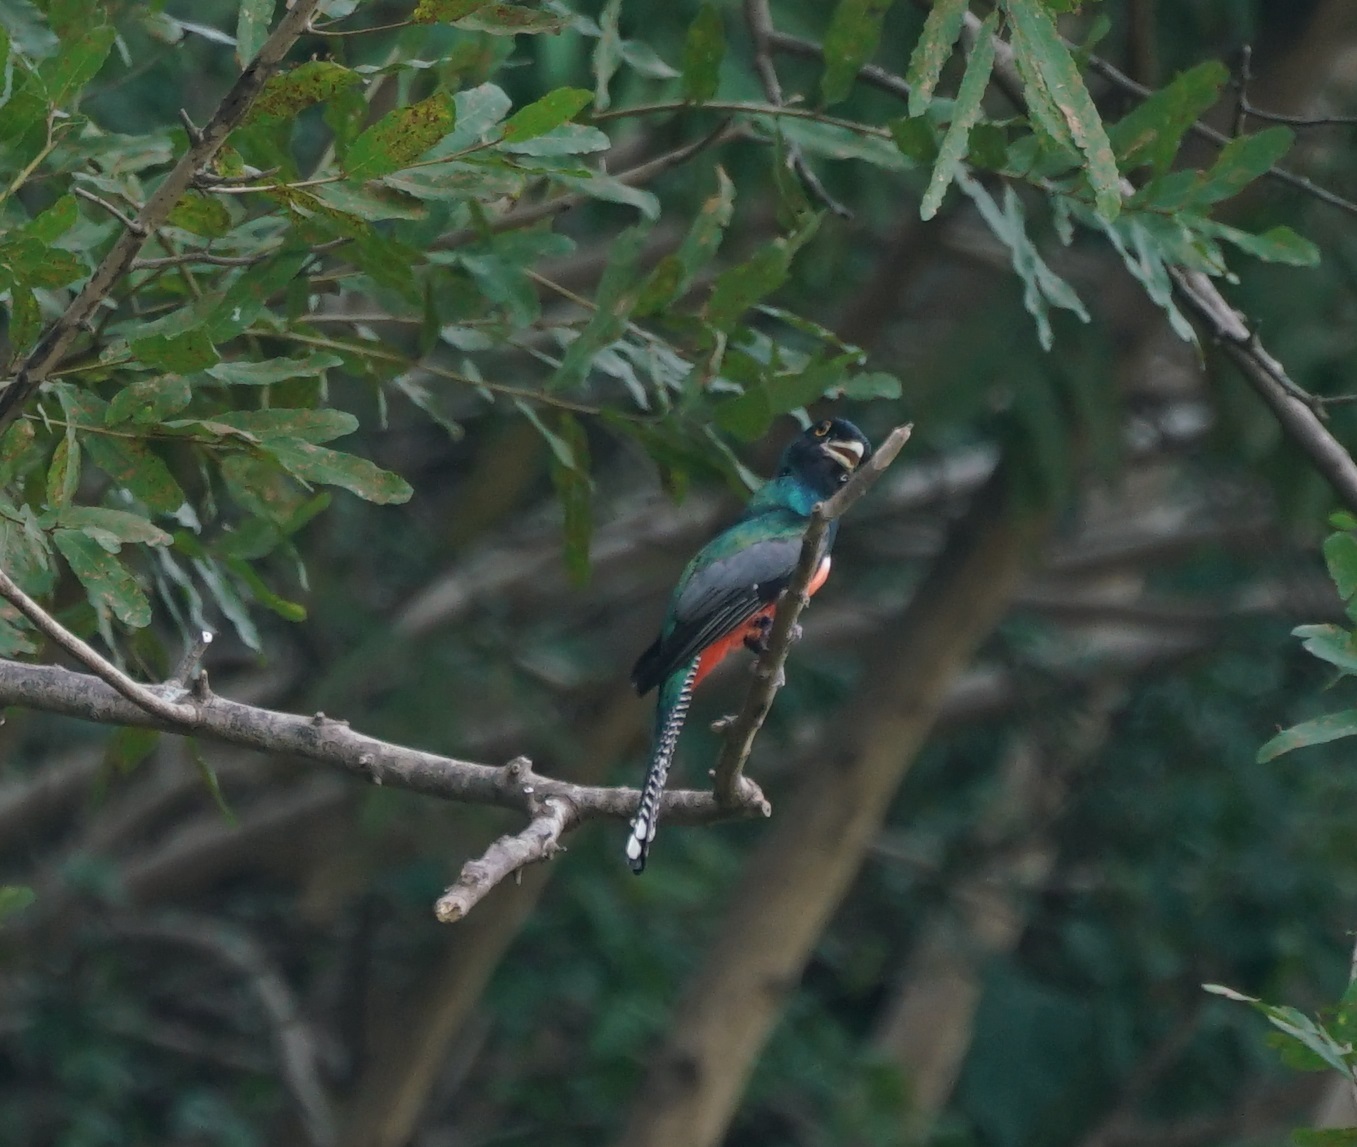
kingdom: Animalia
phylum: Chordata
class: Aves
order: Trogoniformes
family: Trogonidae
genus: Trogon
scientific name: Trogon curucui
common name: Blue-crowned trogon
